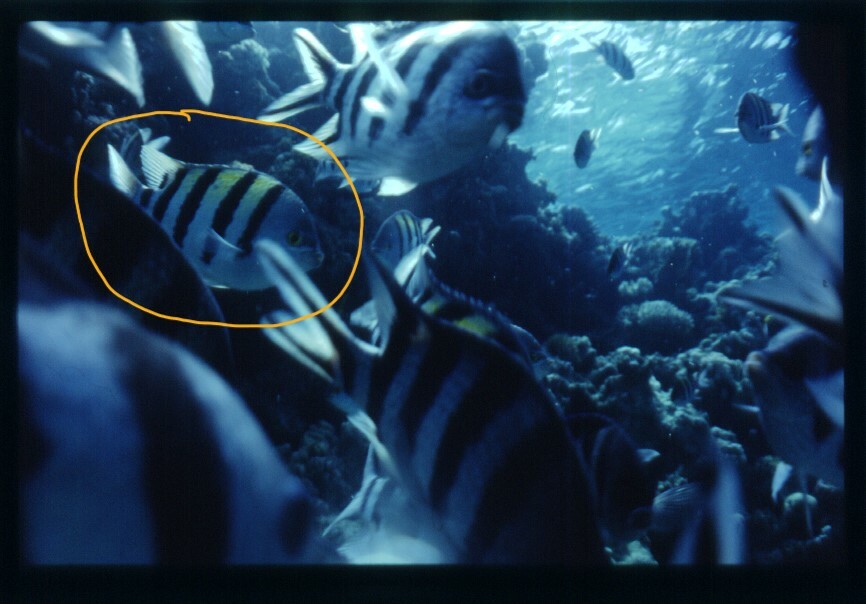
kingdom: Animalia
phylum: Chordata
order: Perciformes
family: Pomacentridae
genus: Abudefduf
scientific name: Abudefduf vaigiensis
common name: Indo-pacific sergeant
